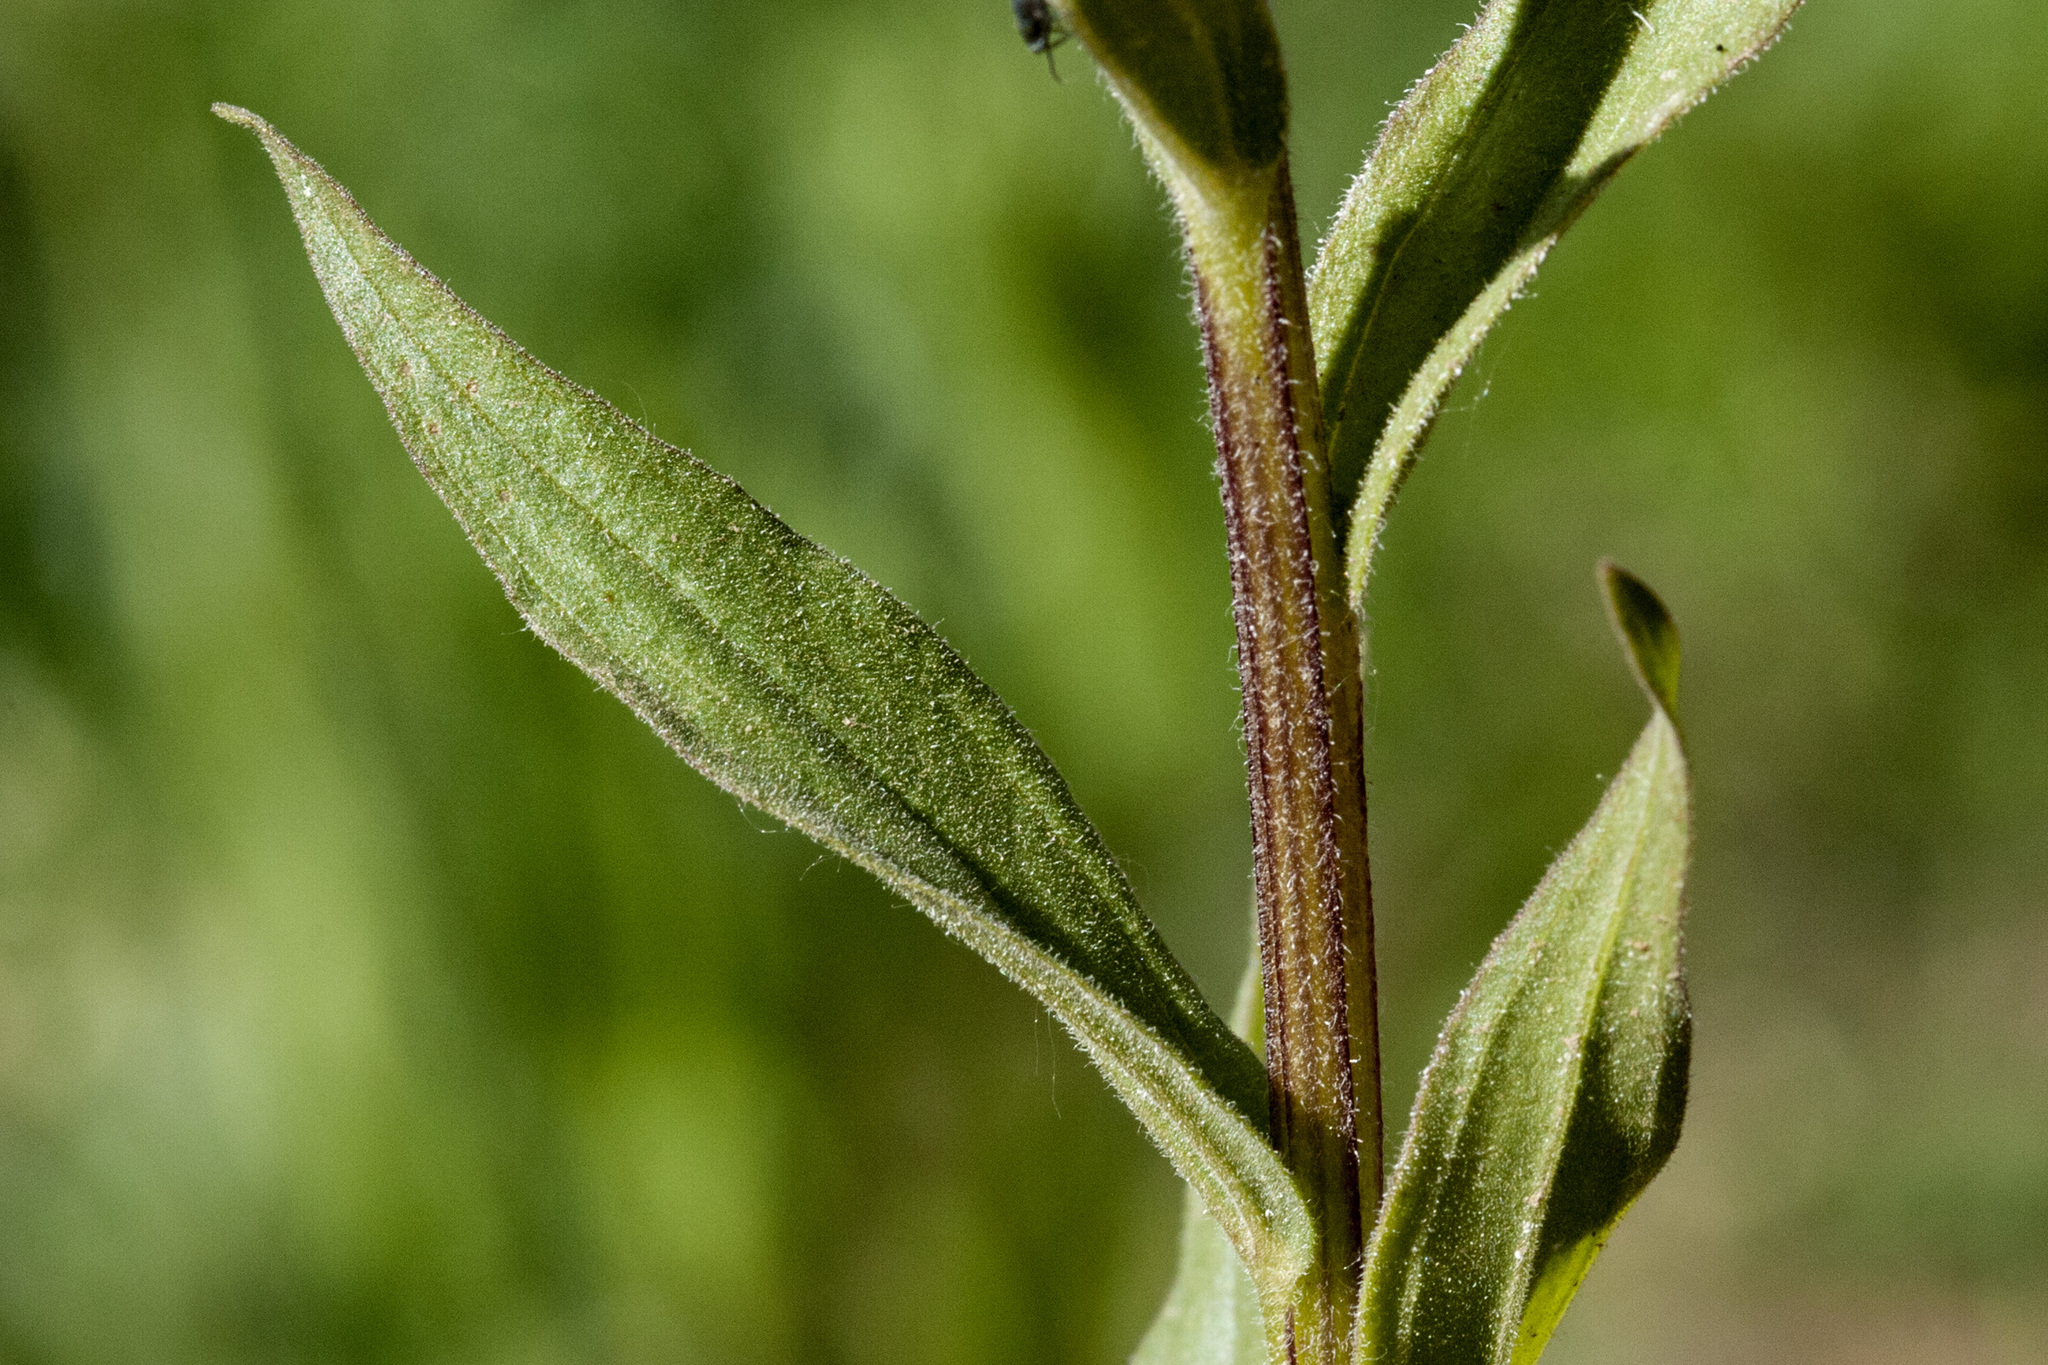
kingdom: Plantae
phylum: Tracheophyta
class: Magnoliopsida
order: Lamiales
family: Orobanchaceae
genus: Castilleja
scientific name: Castilleja rhexifolia
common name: Rocky mountain paintbrush
